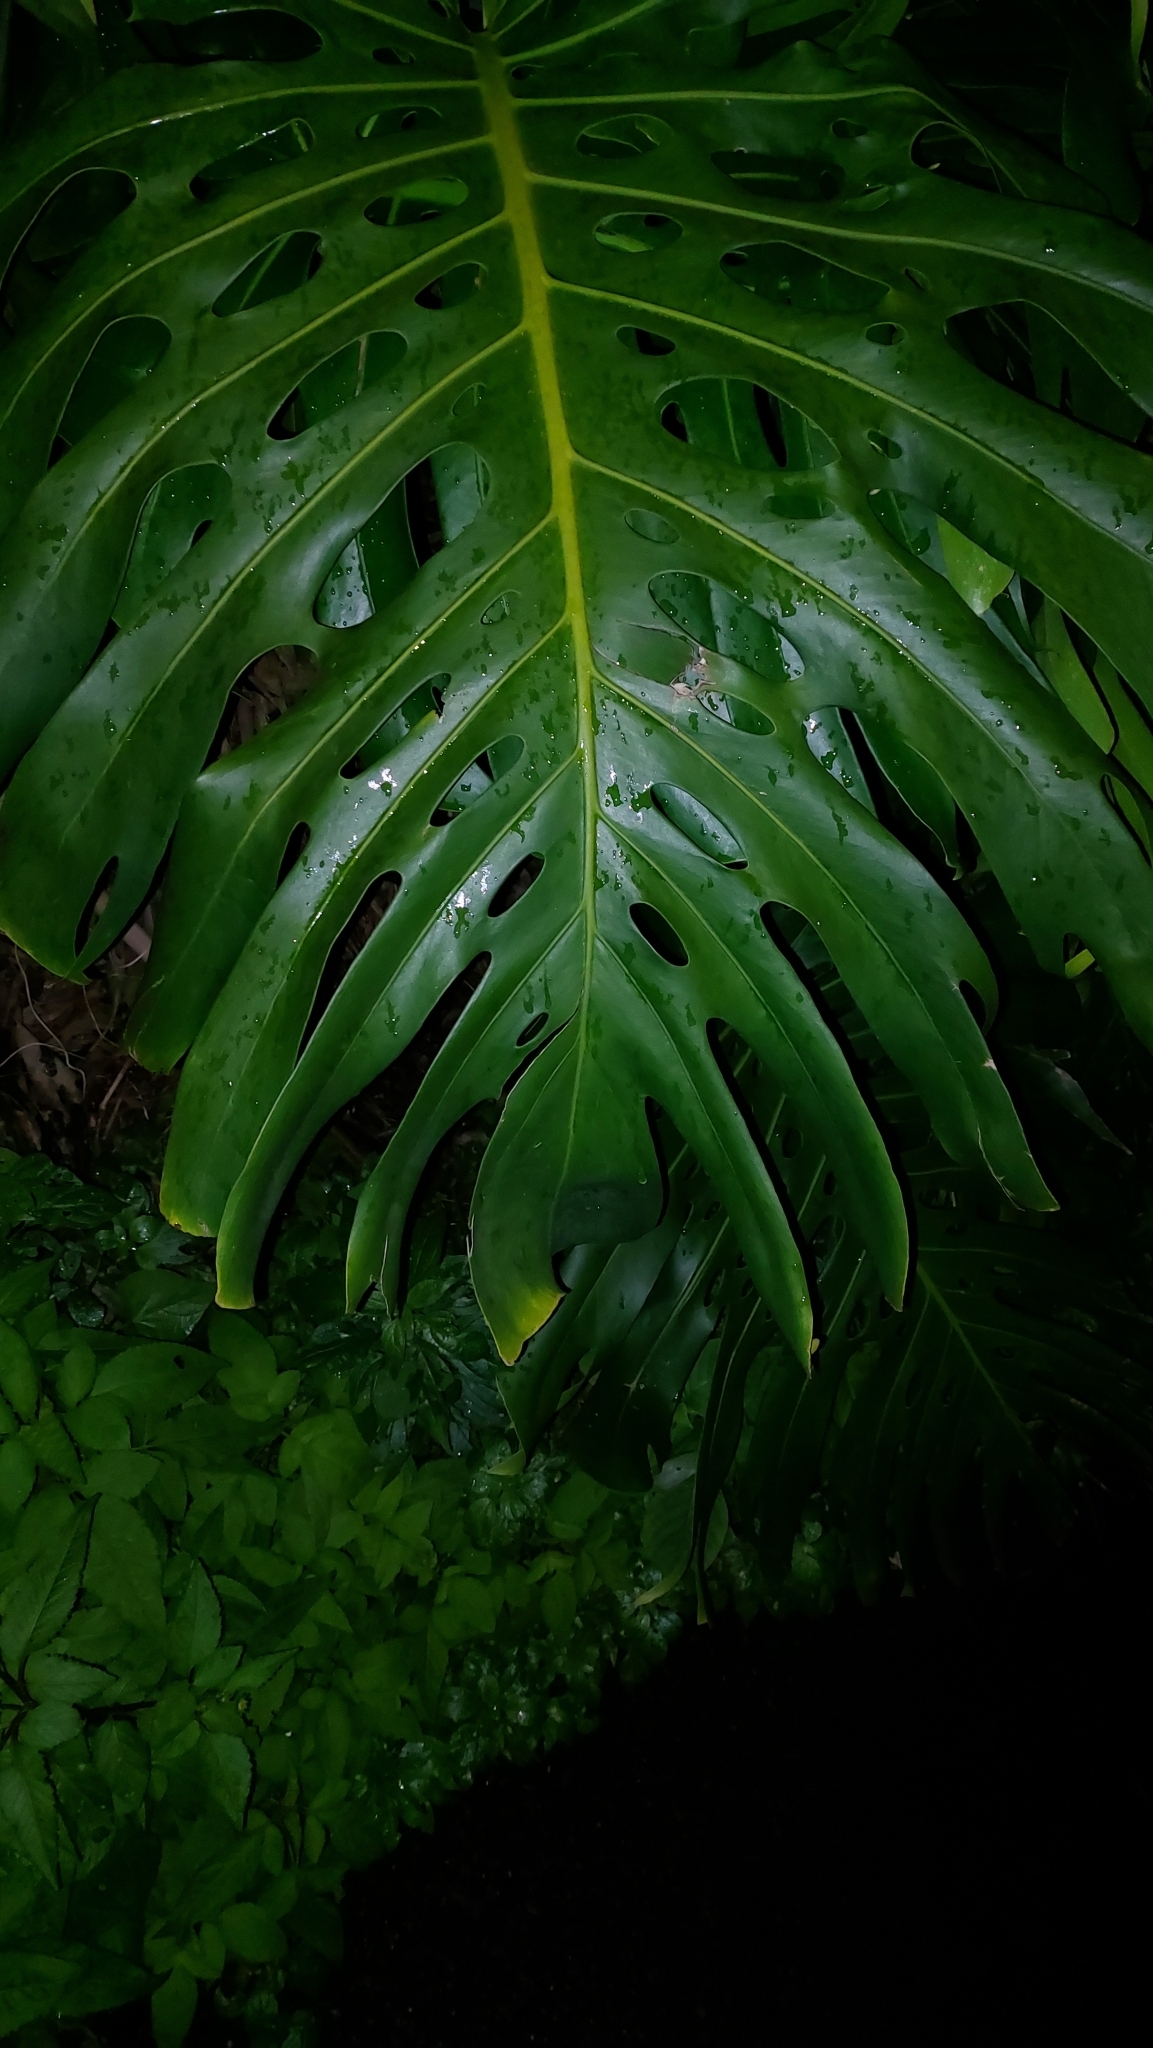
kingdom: Plantae
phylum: Tracheophyta
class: Liliopsida
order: Alismatales
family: Araceae
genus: Monstera
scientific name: Monstera deliciosa
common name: Cut-leaf-philodendron
